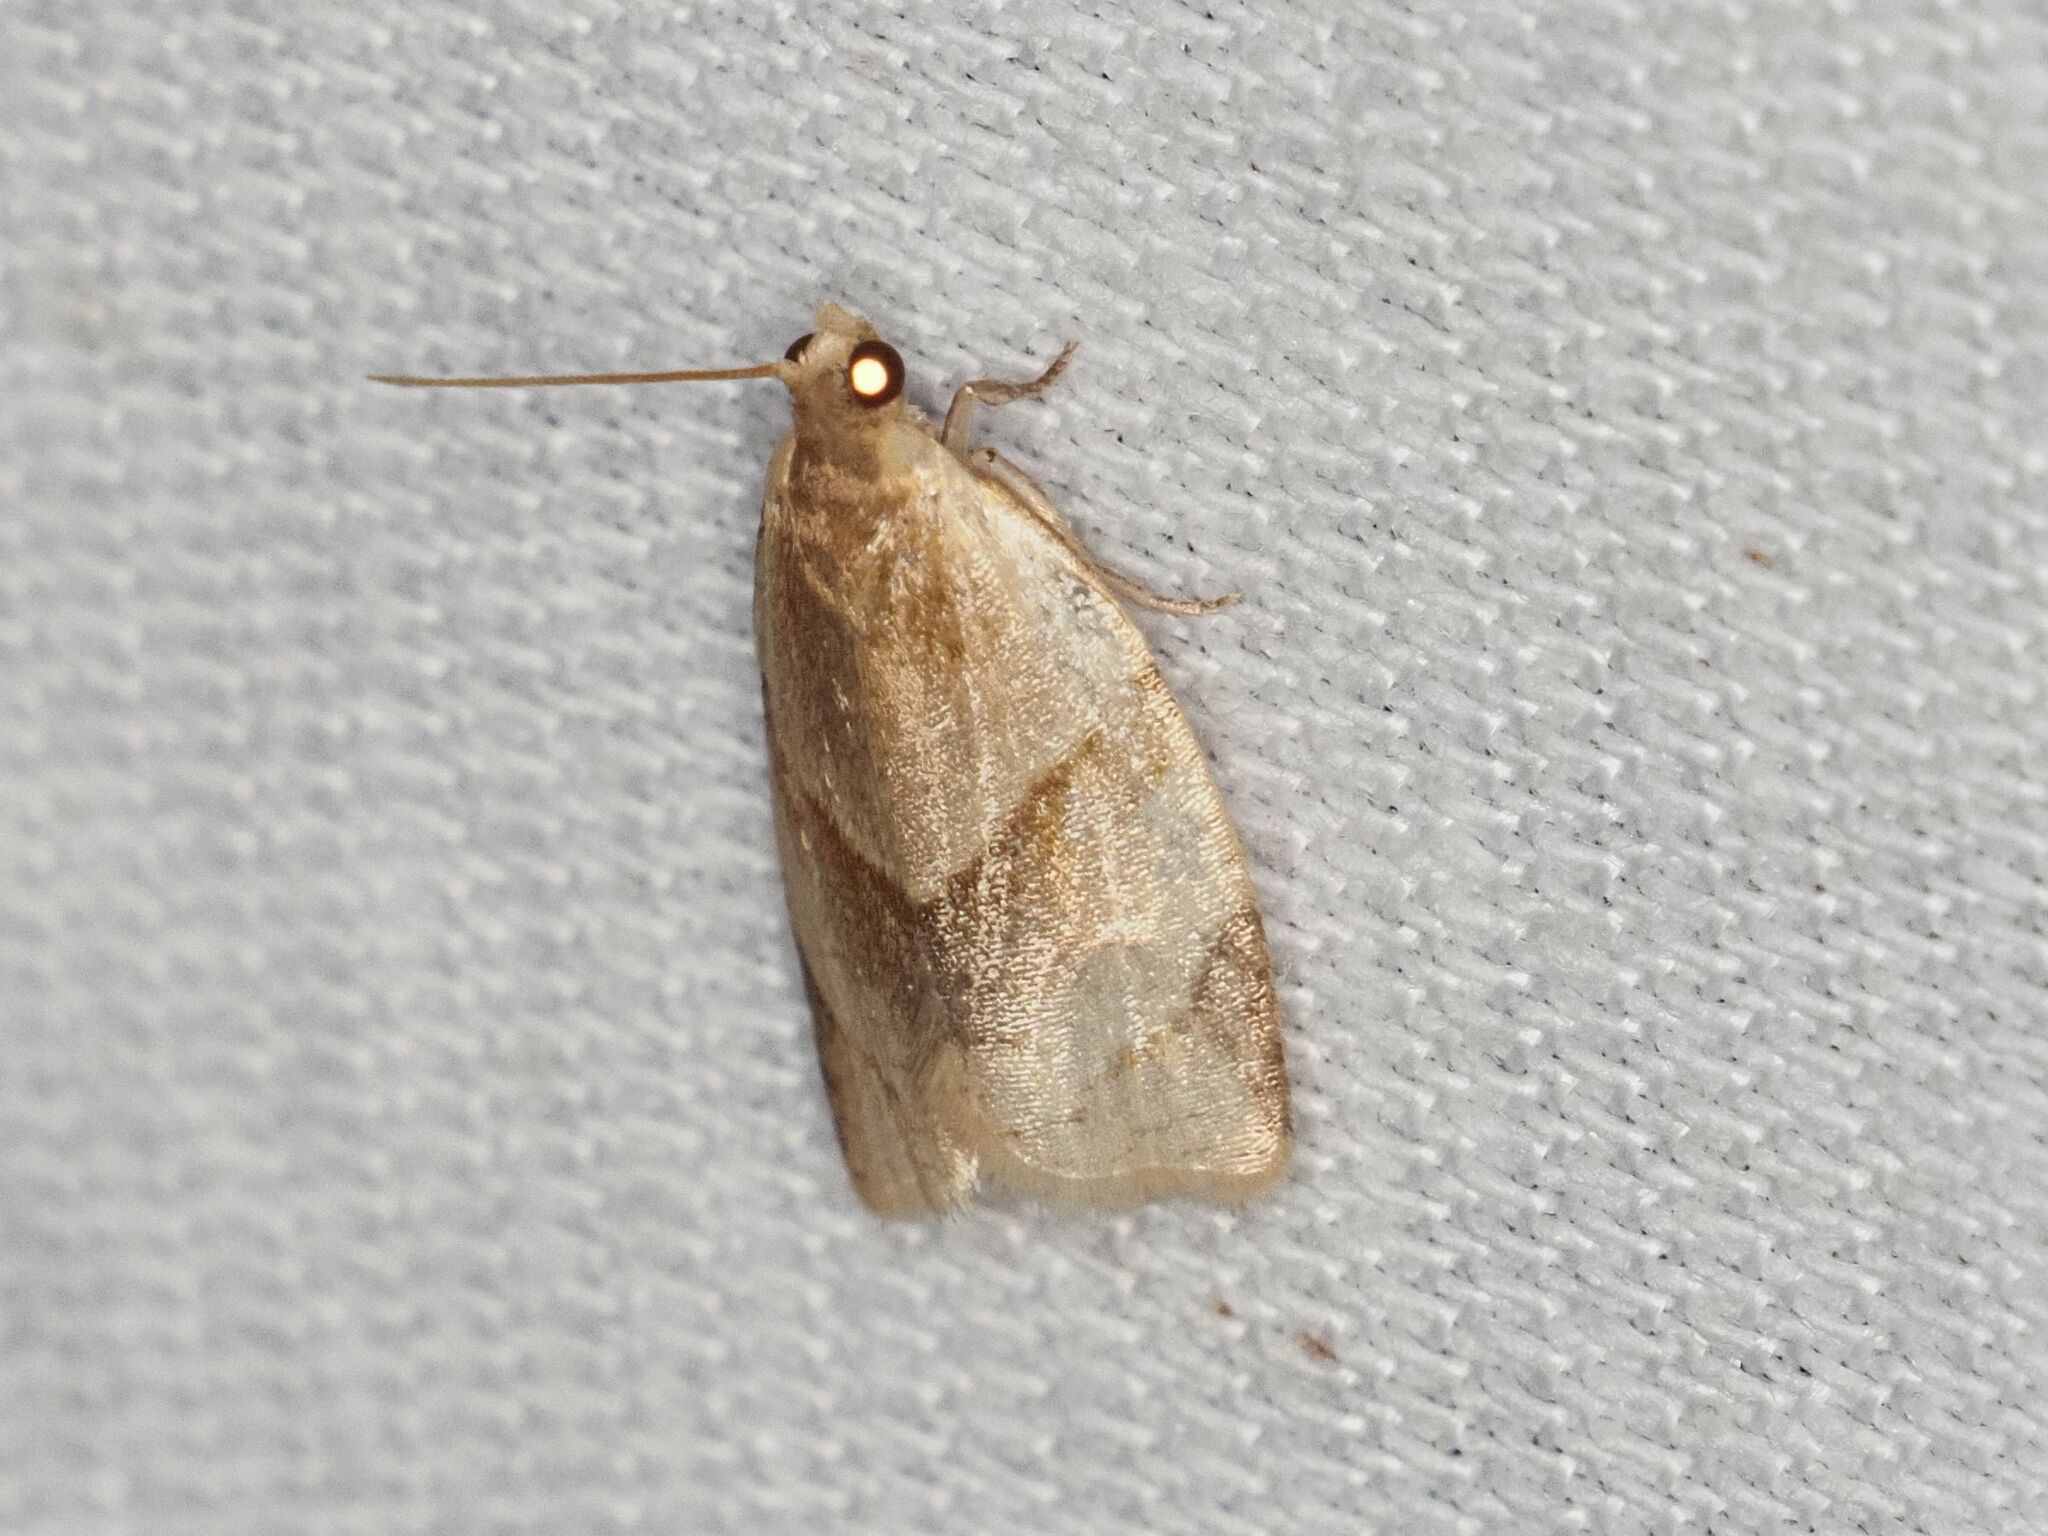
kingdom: Animalia
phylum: Arthropoda
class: Insecta
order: Lepidoptera
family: Tortricidae
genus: Clepsis
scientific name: Clepsis rurinana
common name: Pale twist
